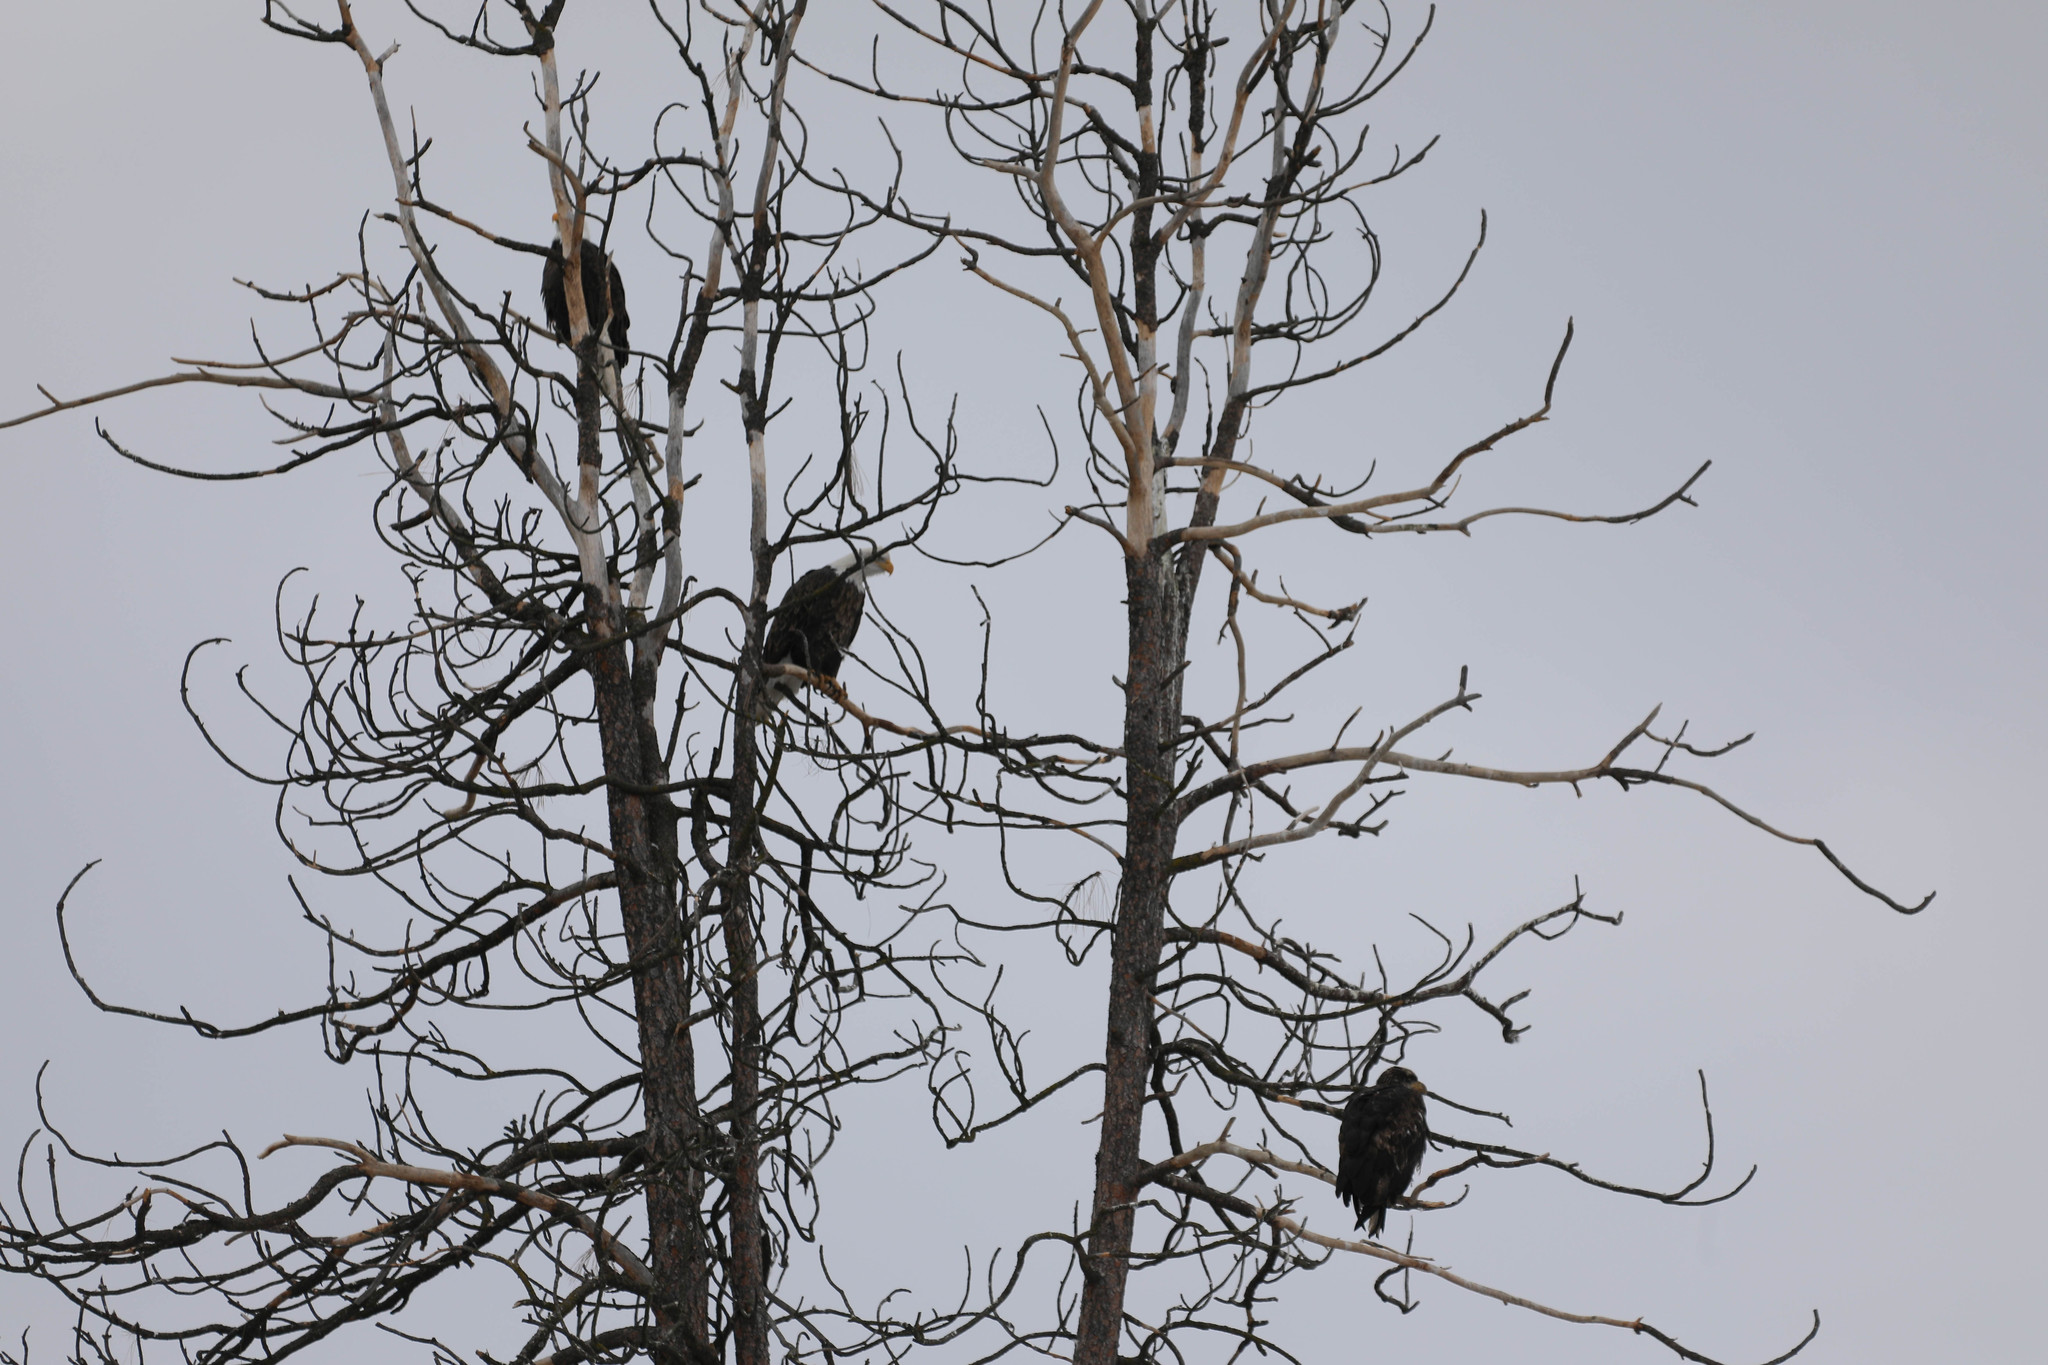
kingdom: Animalia
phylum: Chordata
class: Aves
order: Accipitriformes
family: Accipitridae
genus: Haliaeetus
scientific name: Haliaeetus leucocephalus
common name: Bald eagle
